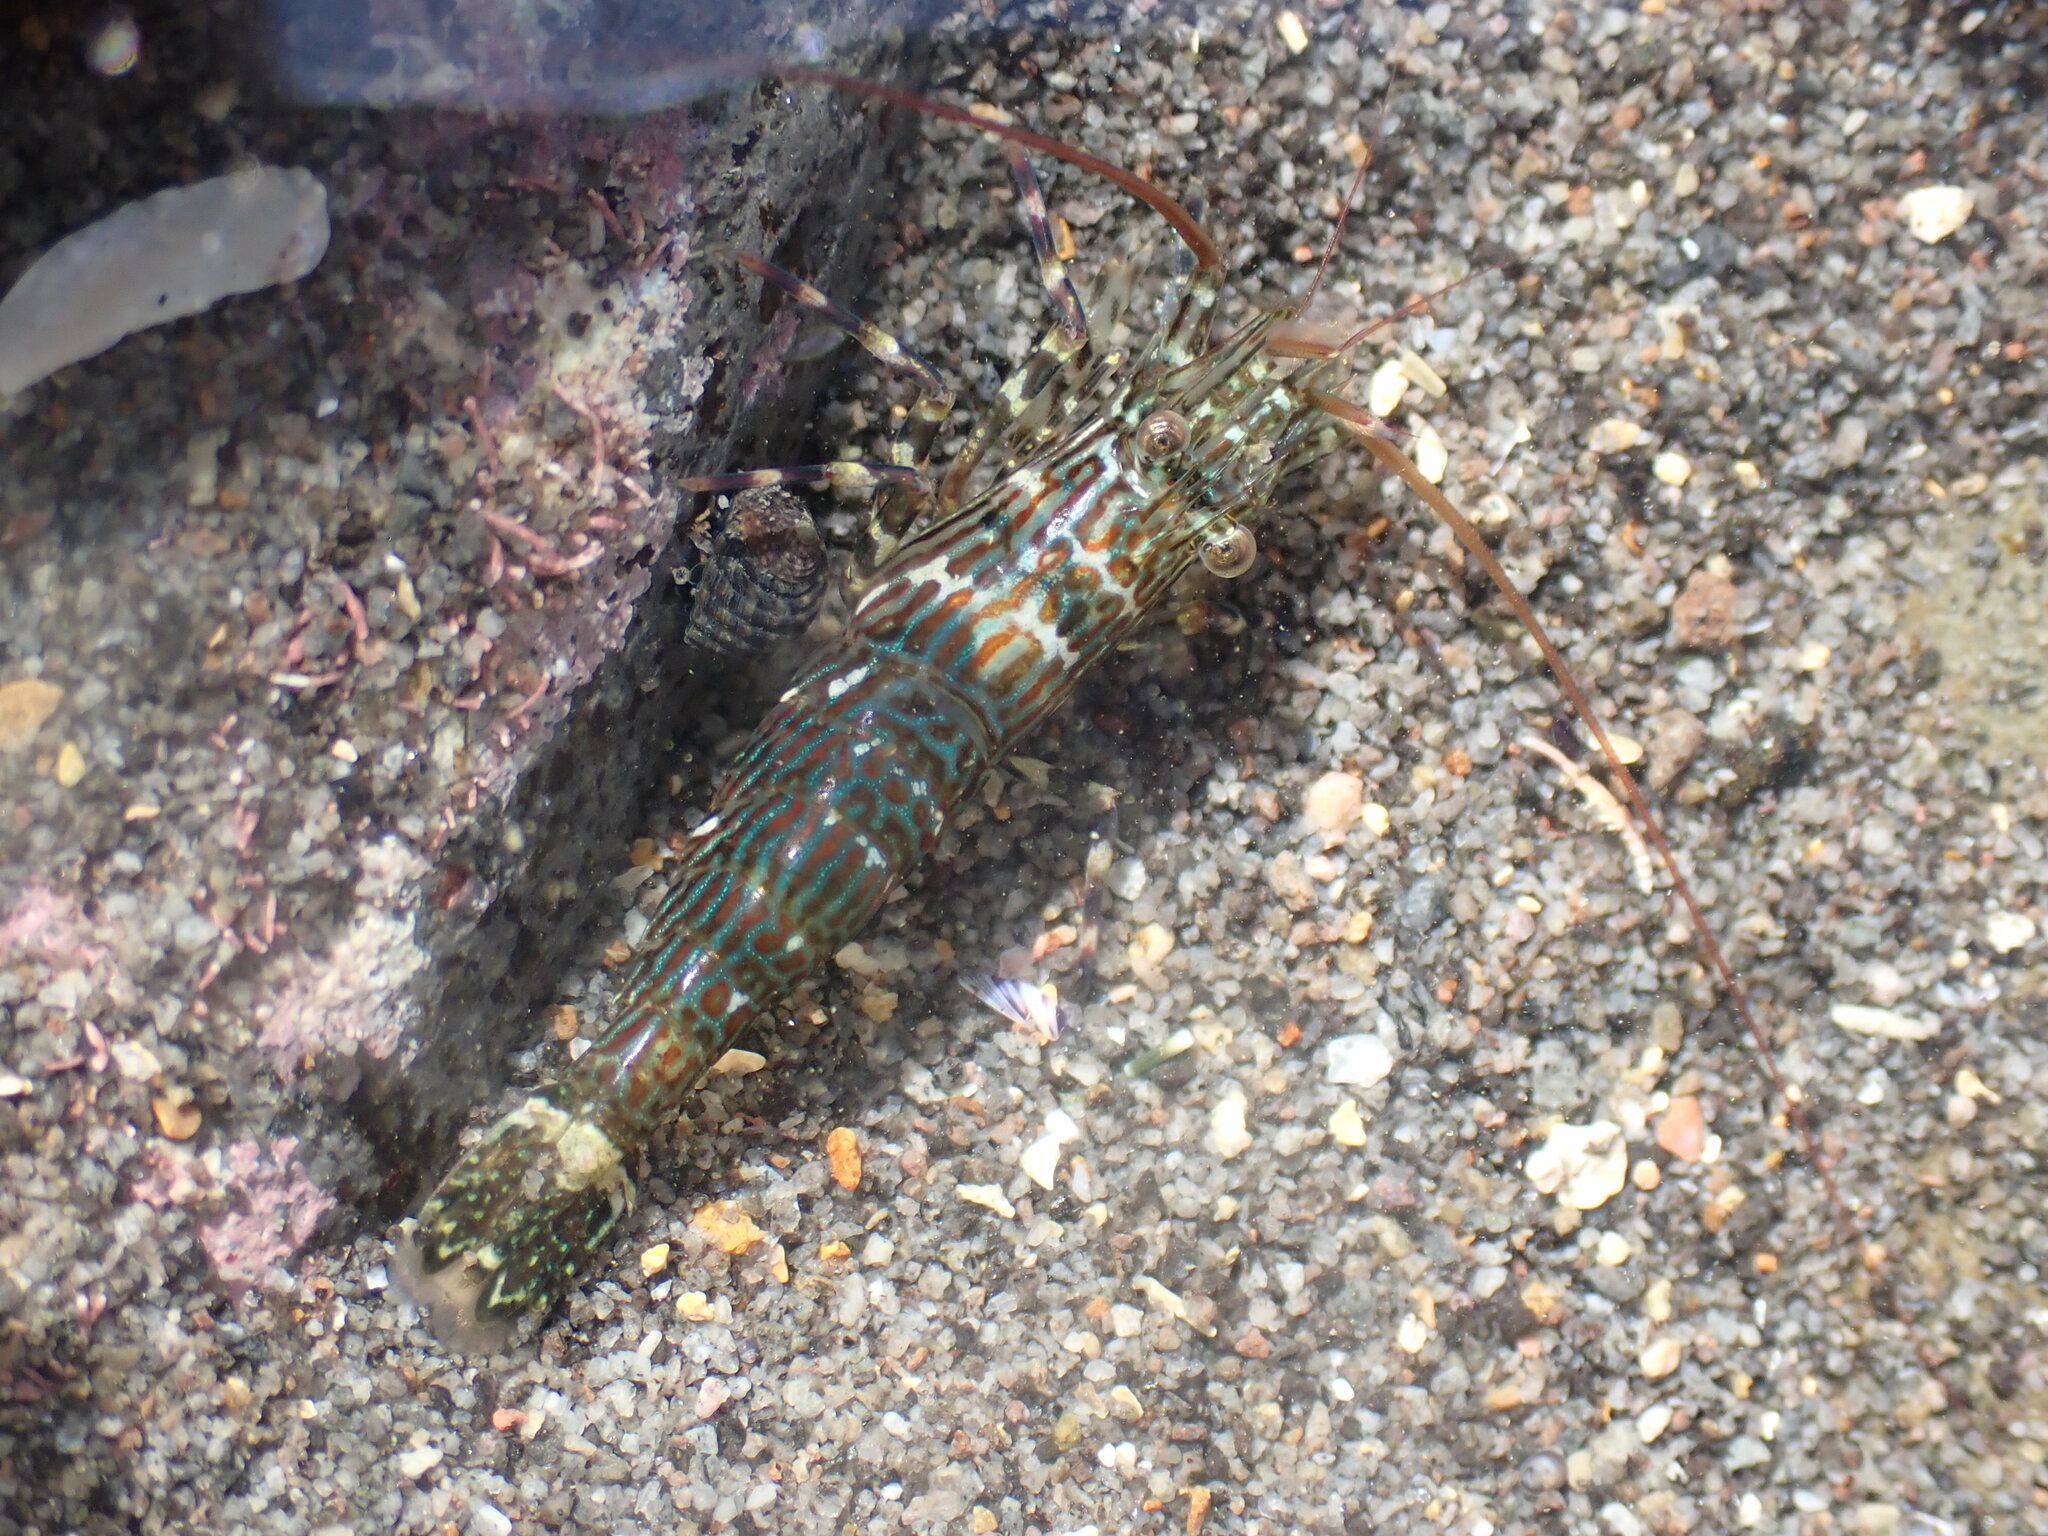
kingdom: Animalia
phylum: Arthropoda
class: Malacostraca
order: Decapoda
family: Hippolytidae
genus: Alope
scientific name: Alope spinifrons
